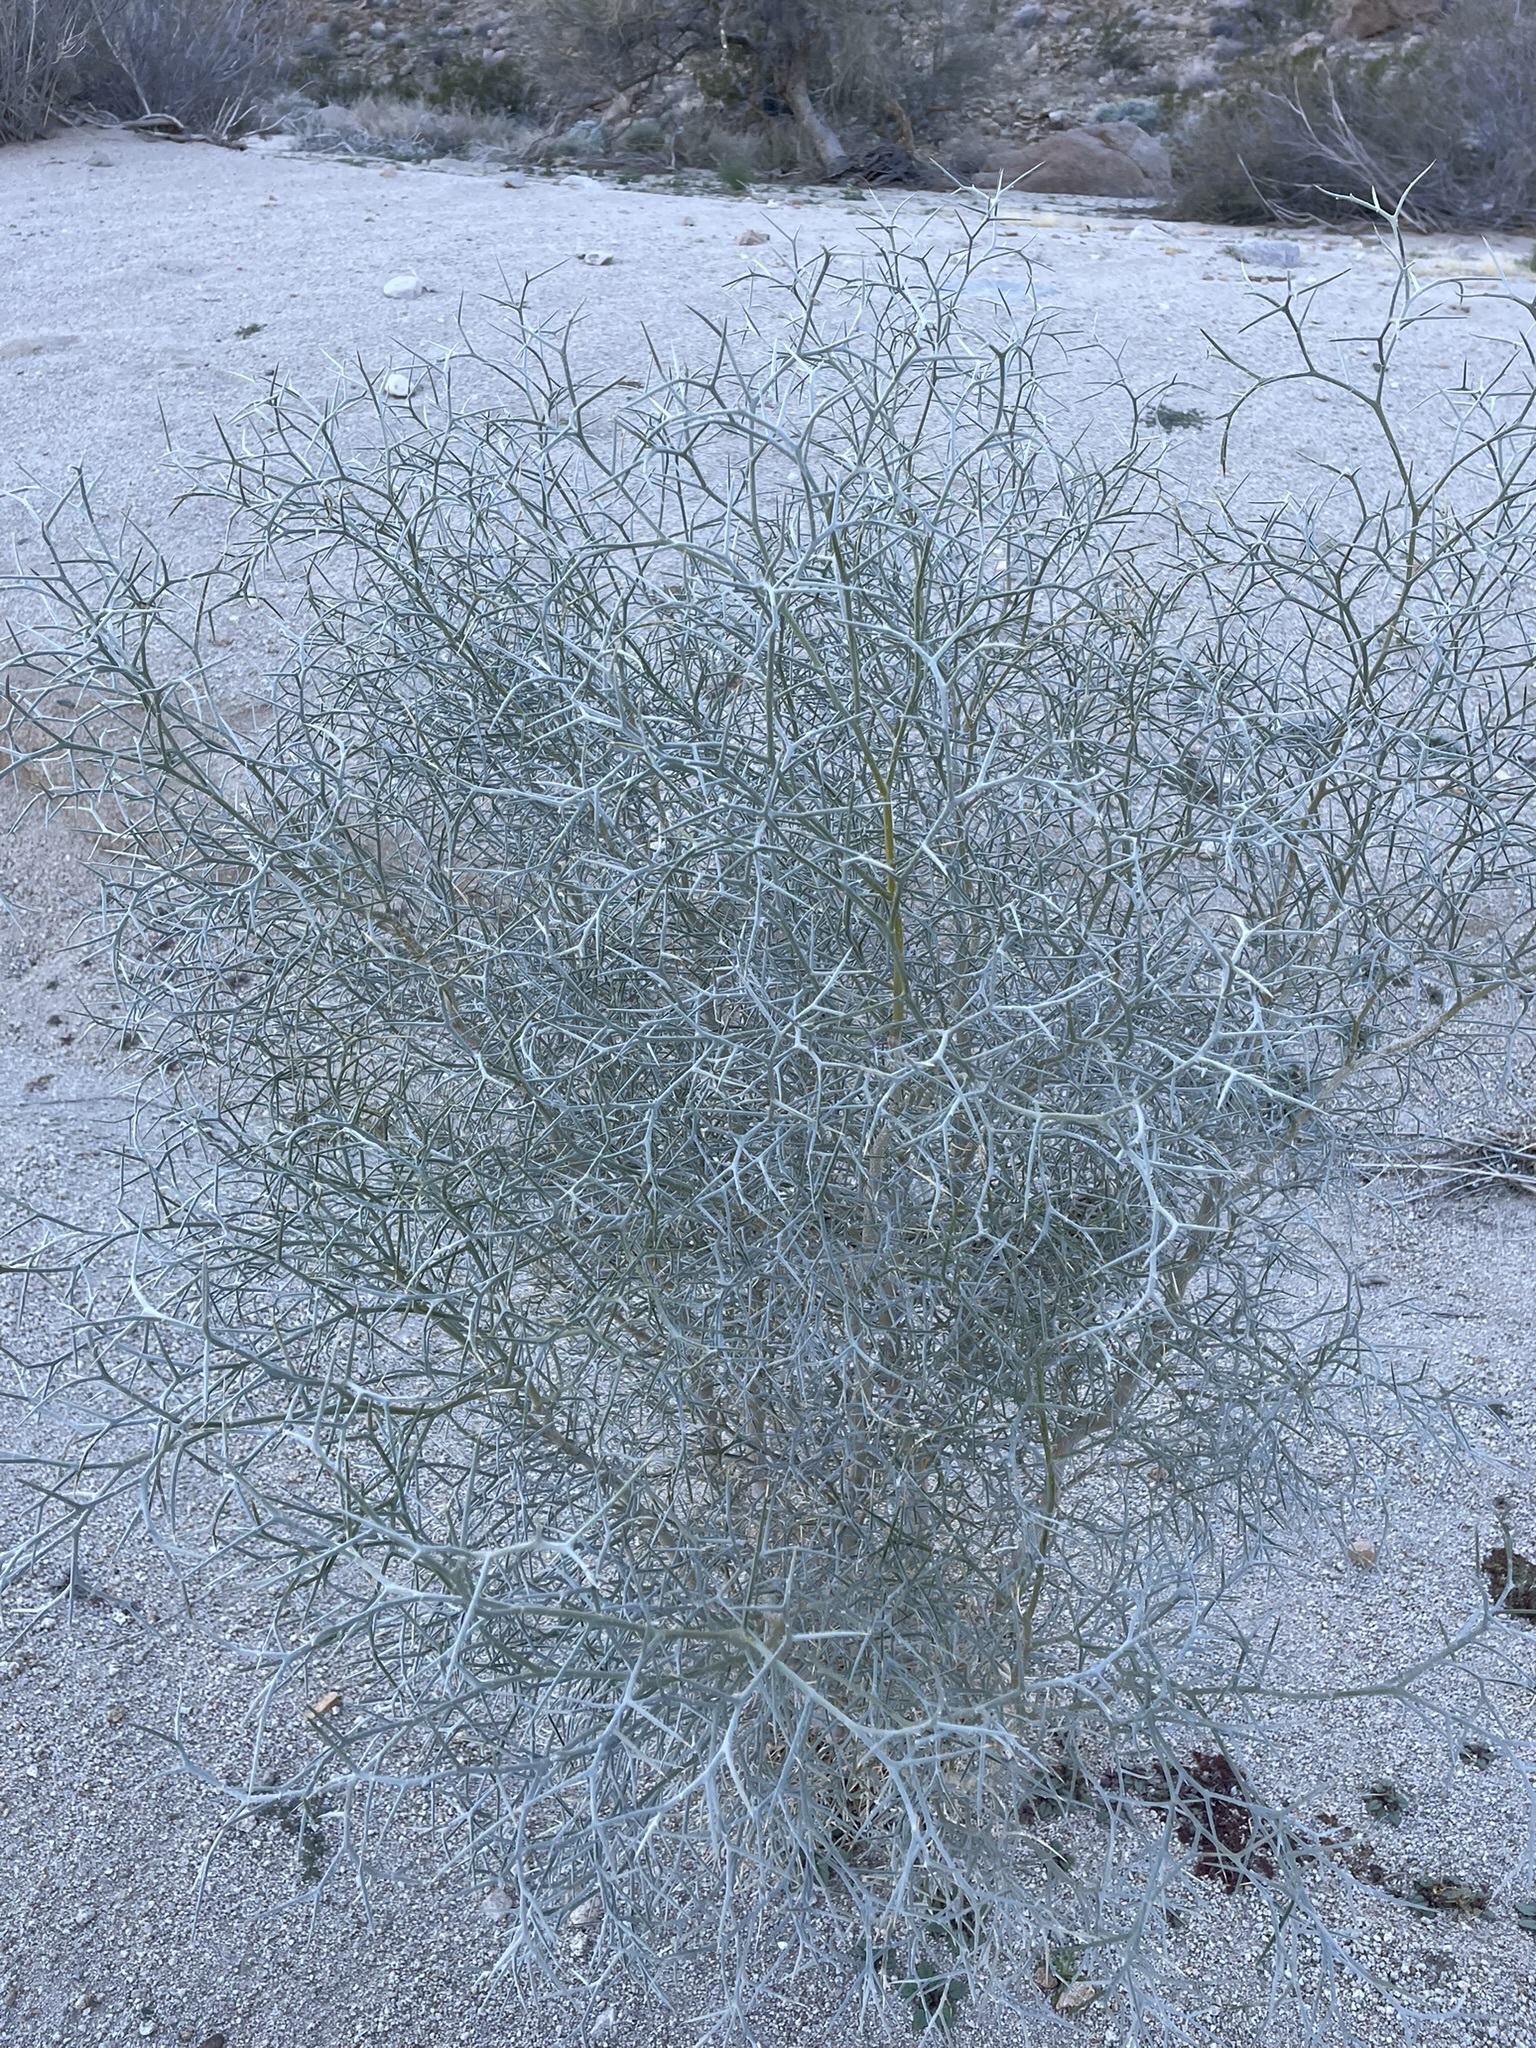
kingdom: Plantae
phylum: Tracheophyta
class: Magnoliopsida
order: Fabales
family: Fabaceae
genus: Psorothamnus
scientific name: Psorothamnus spinosus
